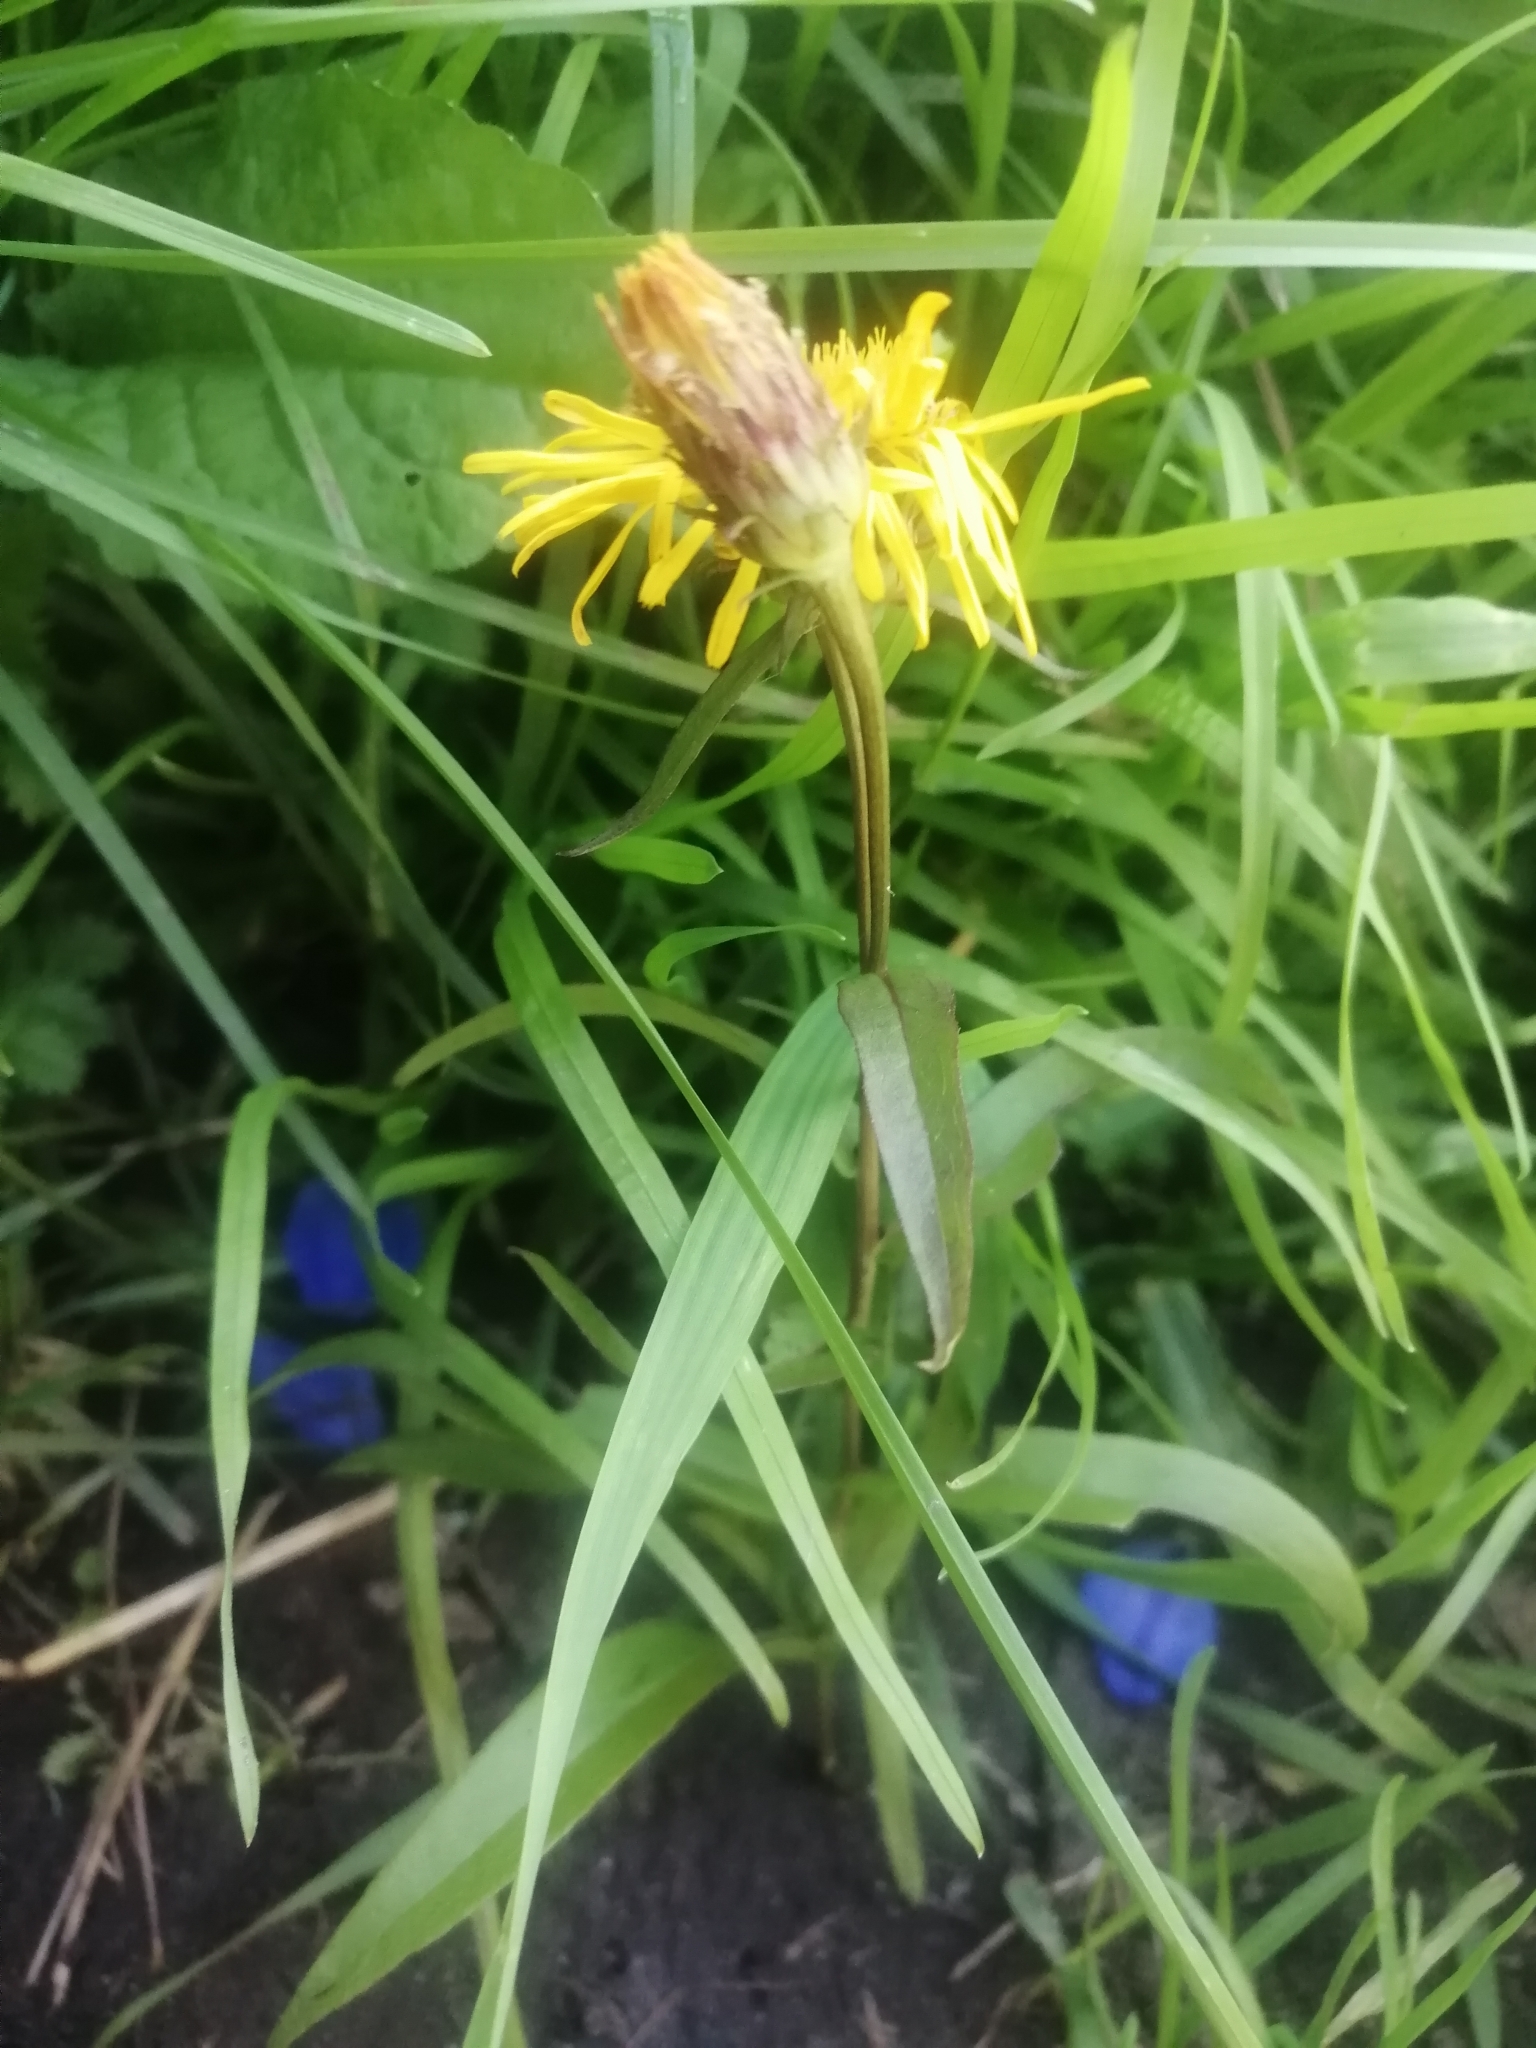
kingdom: Plantae
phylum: Tracheophyta
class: Magnoliopsida
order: Asterales
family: Asteraceae
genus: Pentanema
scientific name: Pentanema salicinum
